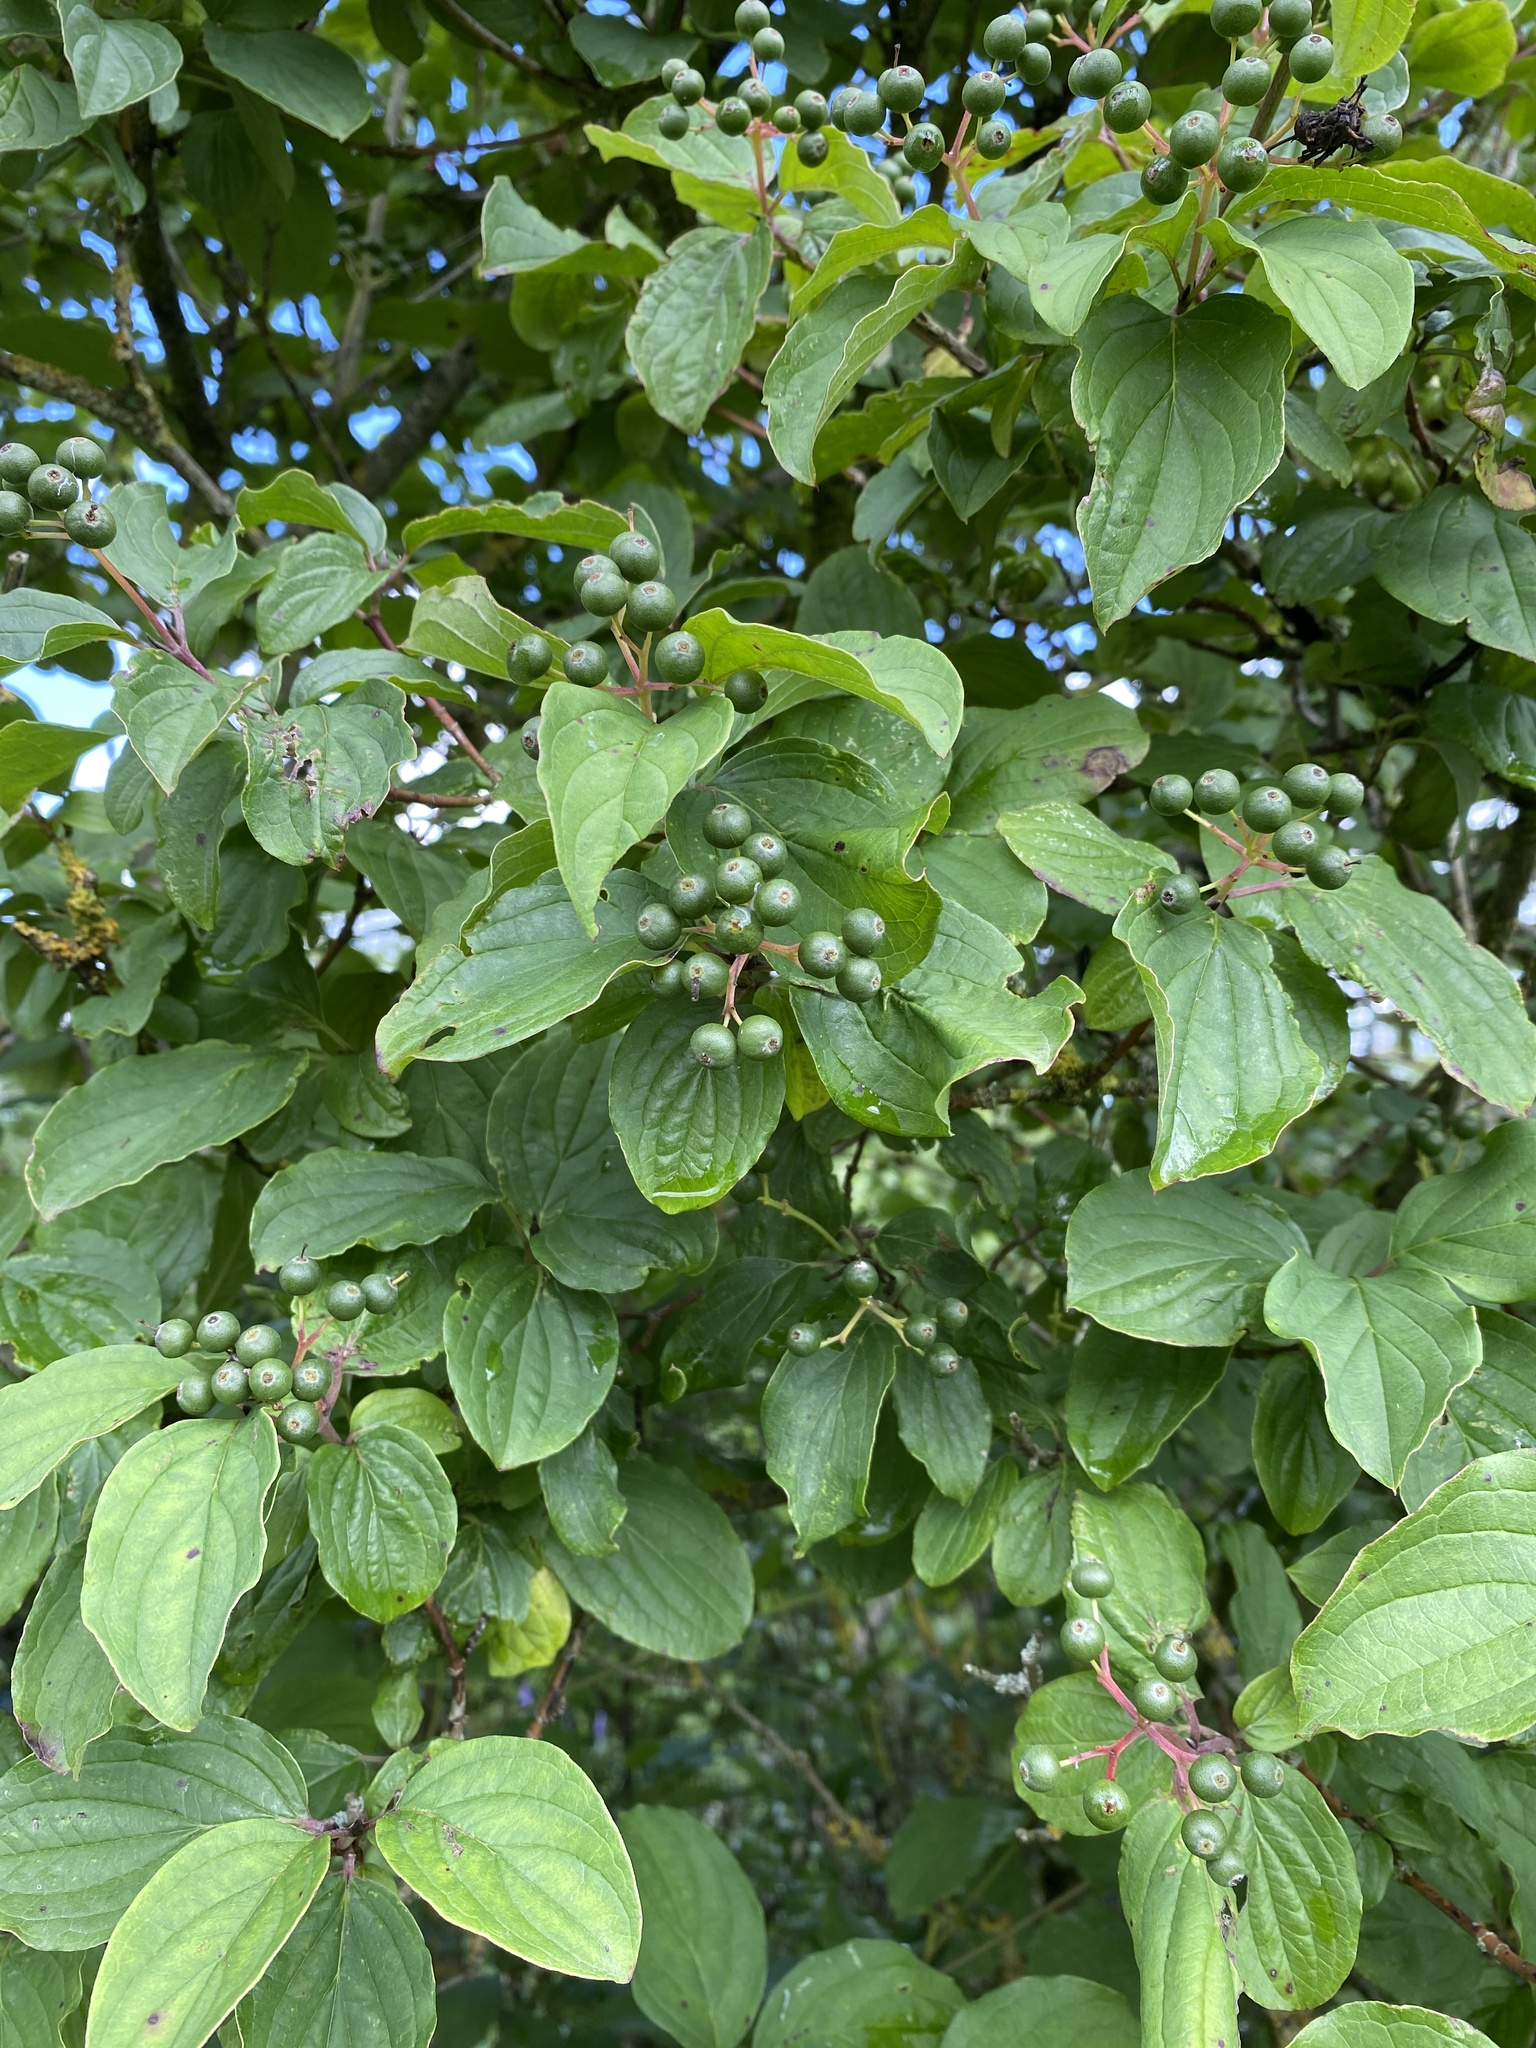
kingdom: Plantae
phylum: Tracheophyta
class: Magnoliopsida
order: Cornales
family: Cornaceae
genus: Cornus
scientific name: Cornus sanguinea
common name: Dogwood
